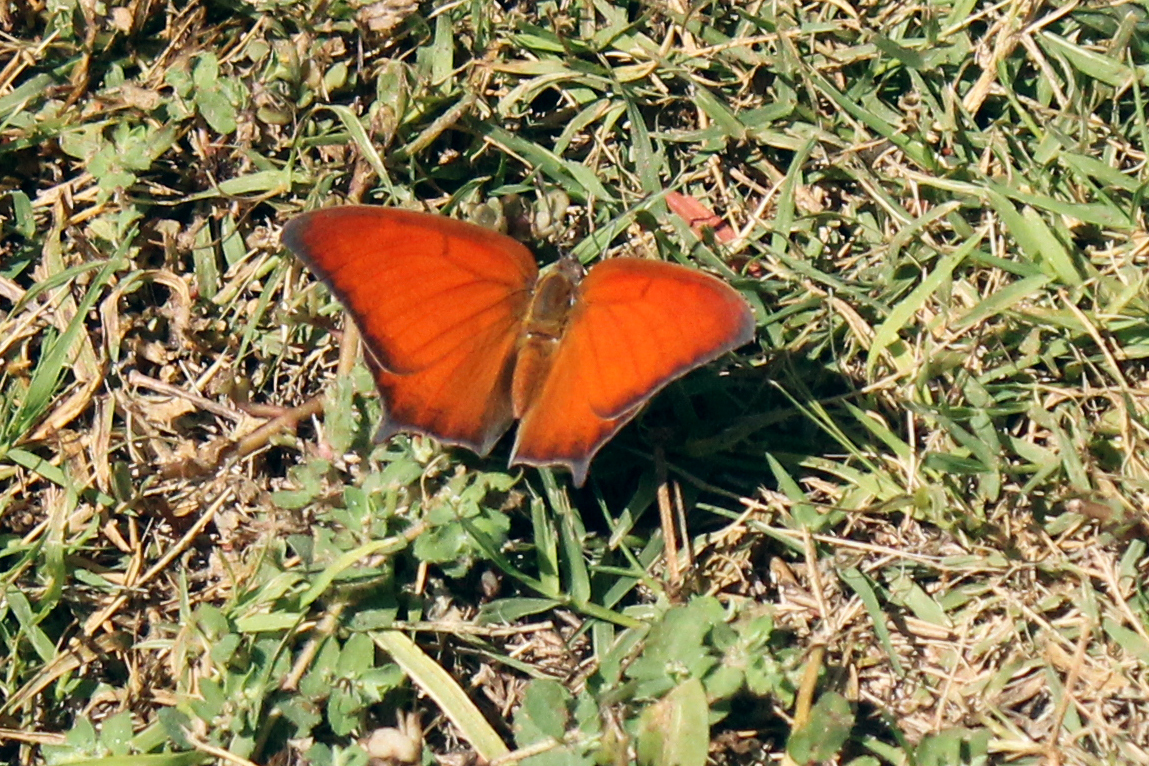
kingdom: Animalia
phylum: Arthropoda
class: Insecta
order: Lepidoptera
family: Nymphalidae
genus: Anaea
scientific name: Anaea andria
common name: Goatweed leafwing
